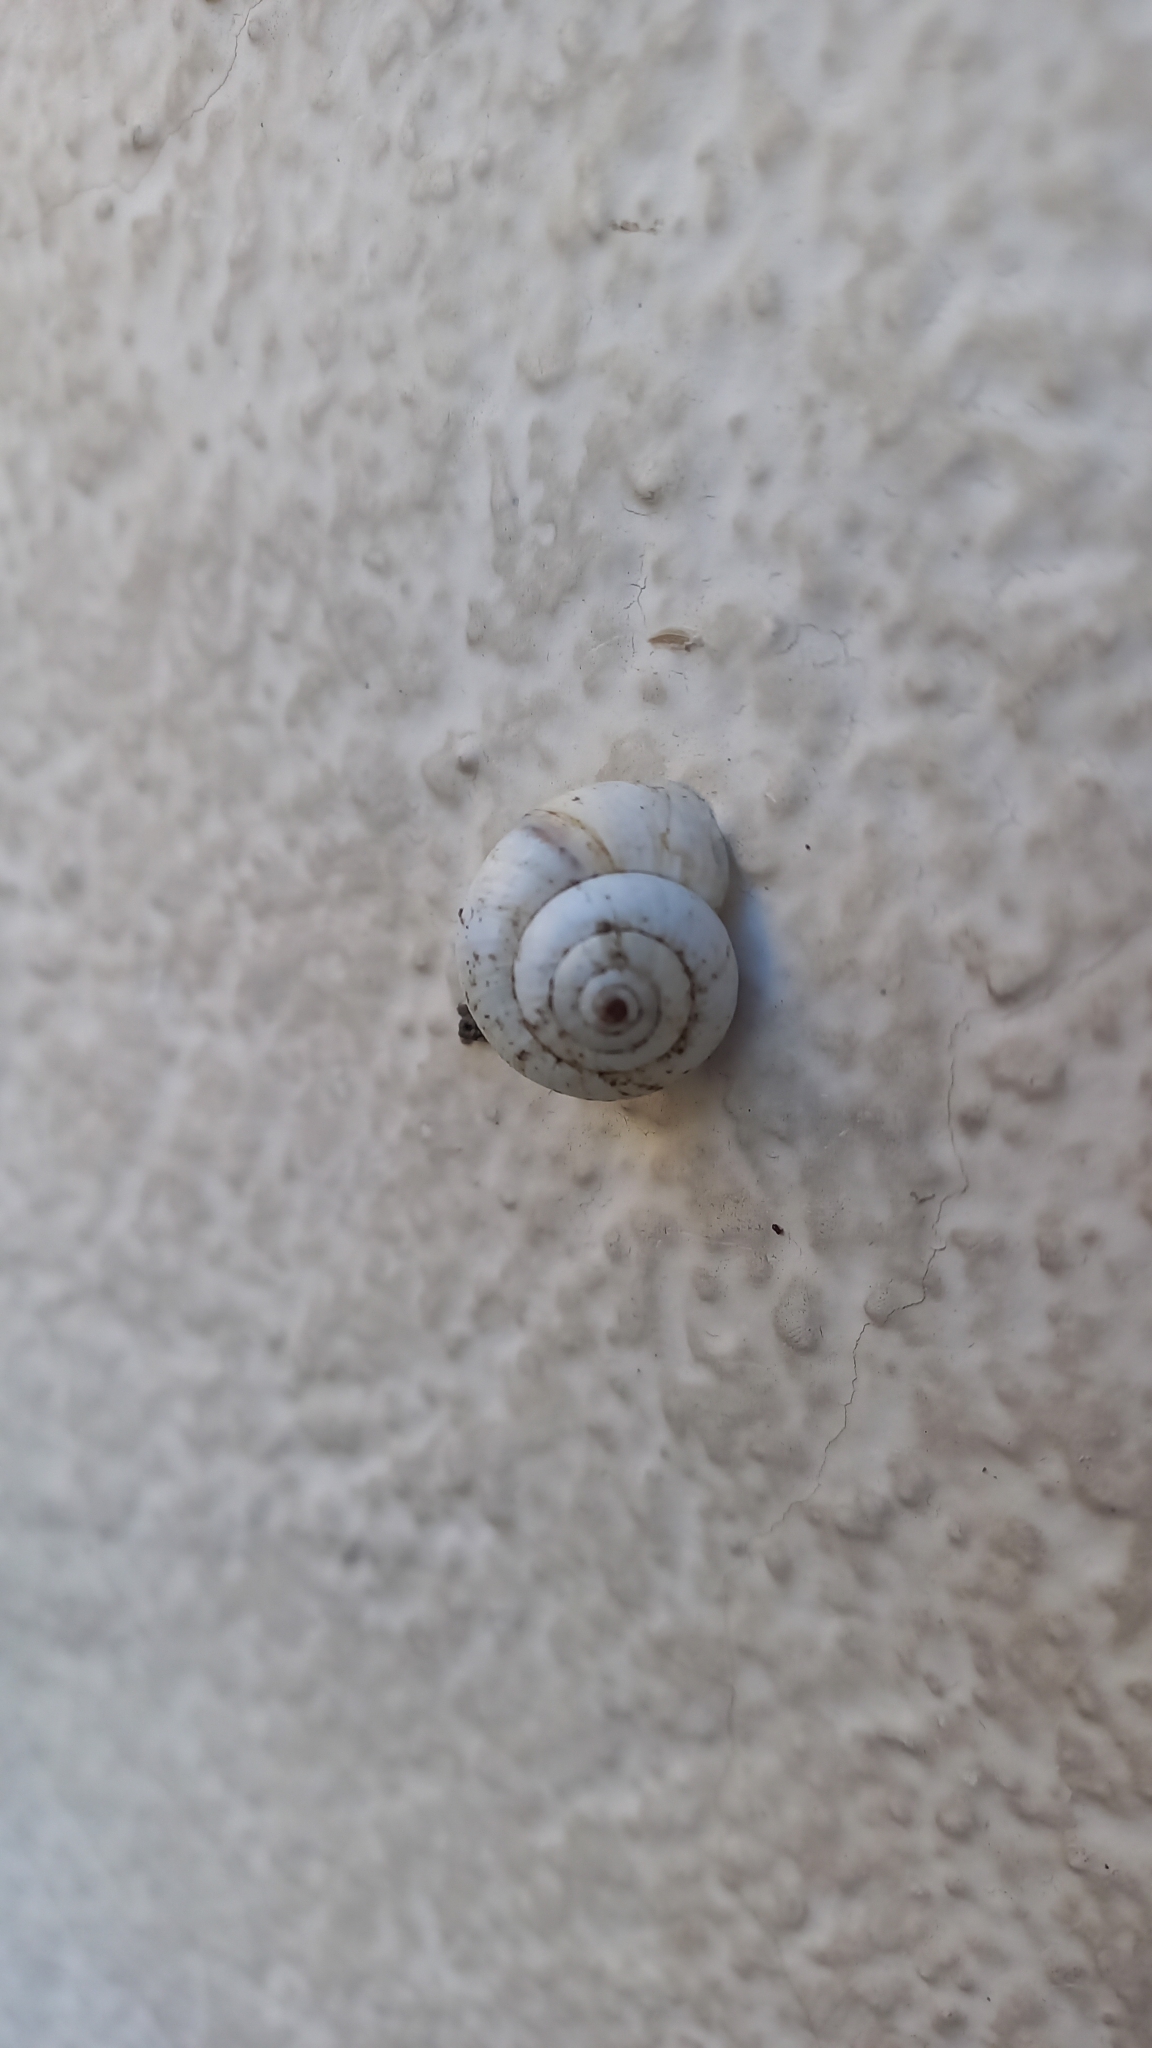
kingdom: Animalia
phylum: Mollusca
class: Gastropoda
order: Stylommatophora
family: Geomitridae
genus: Xeropicta
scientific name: Xeropicta derbentina
